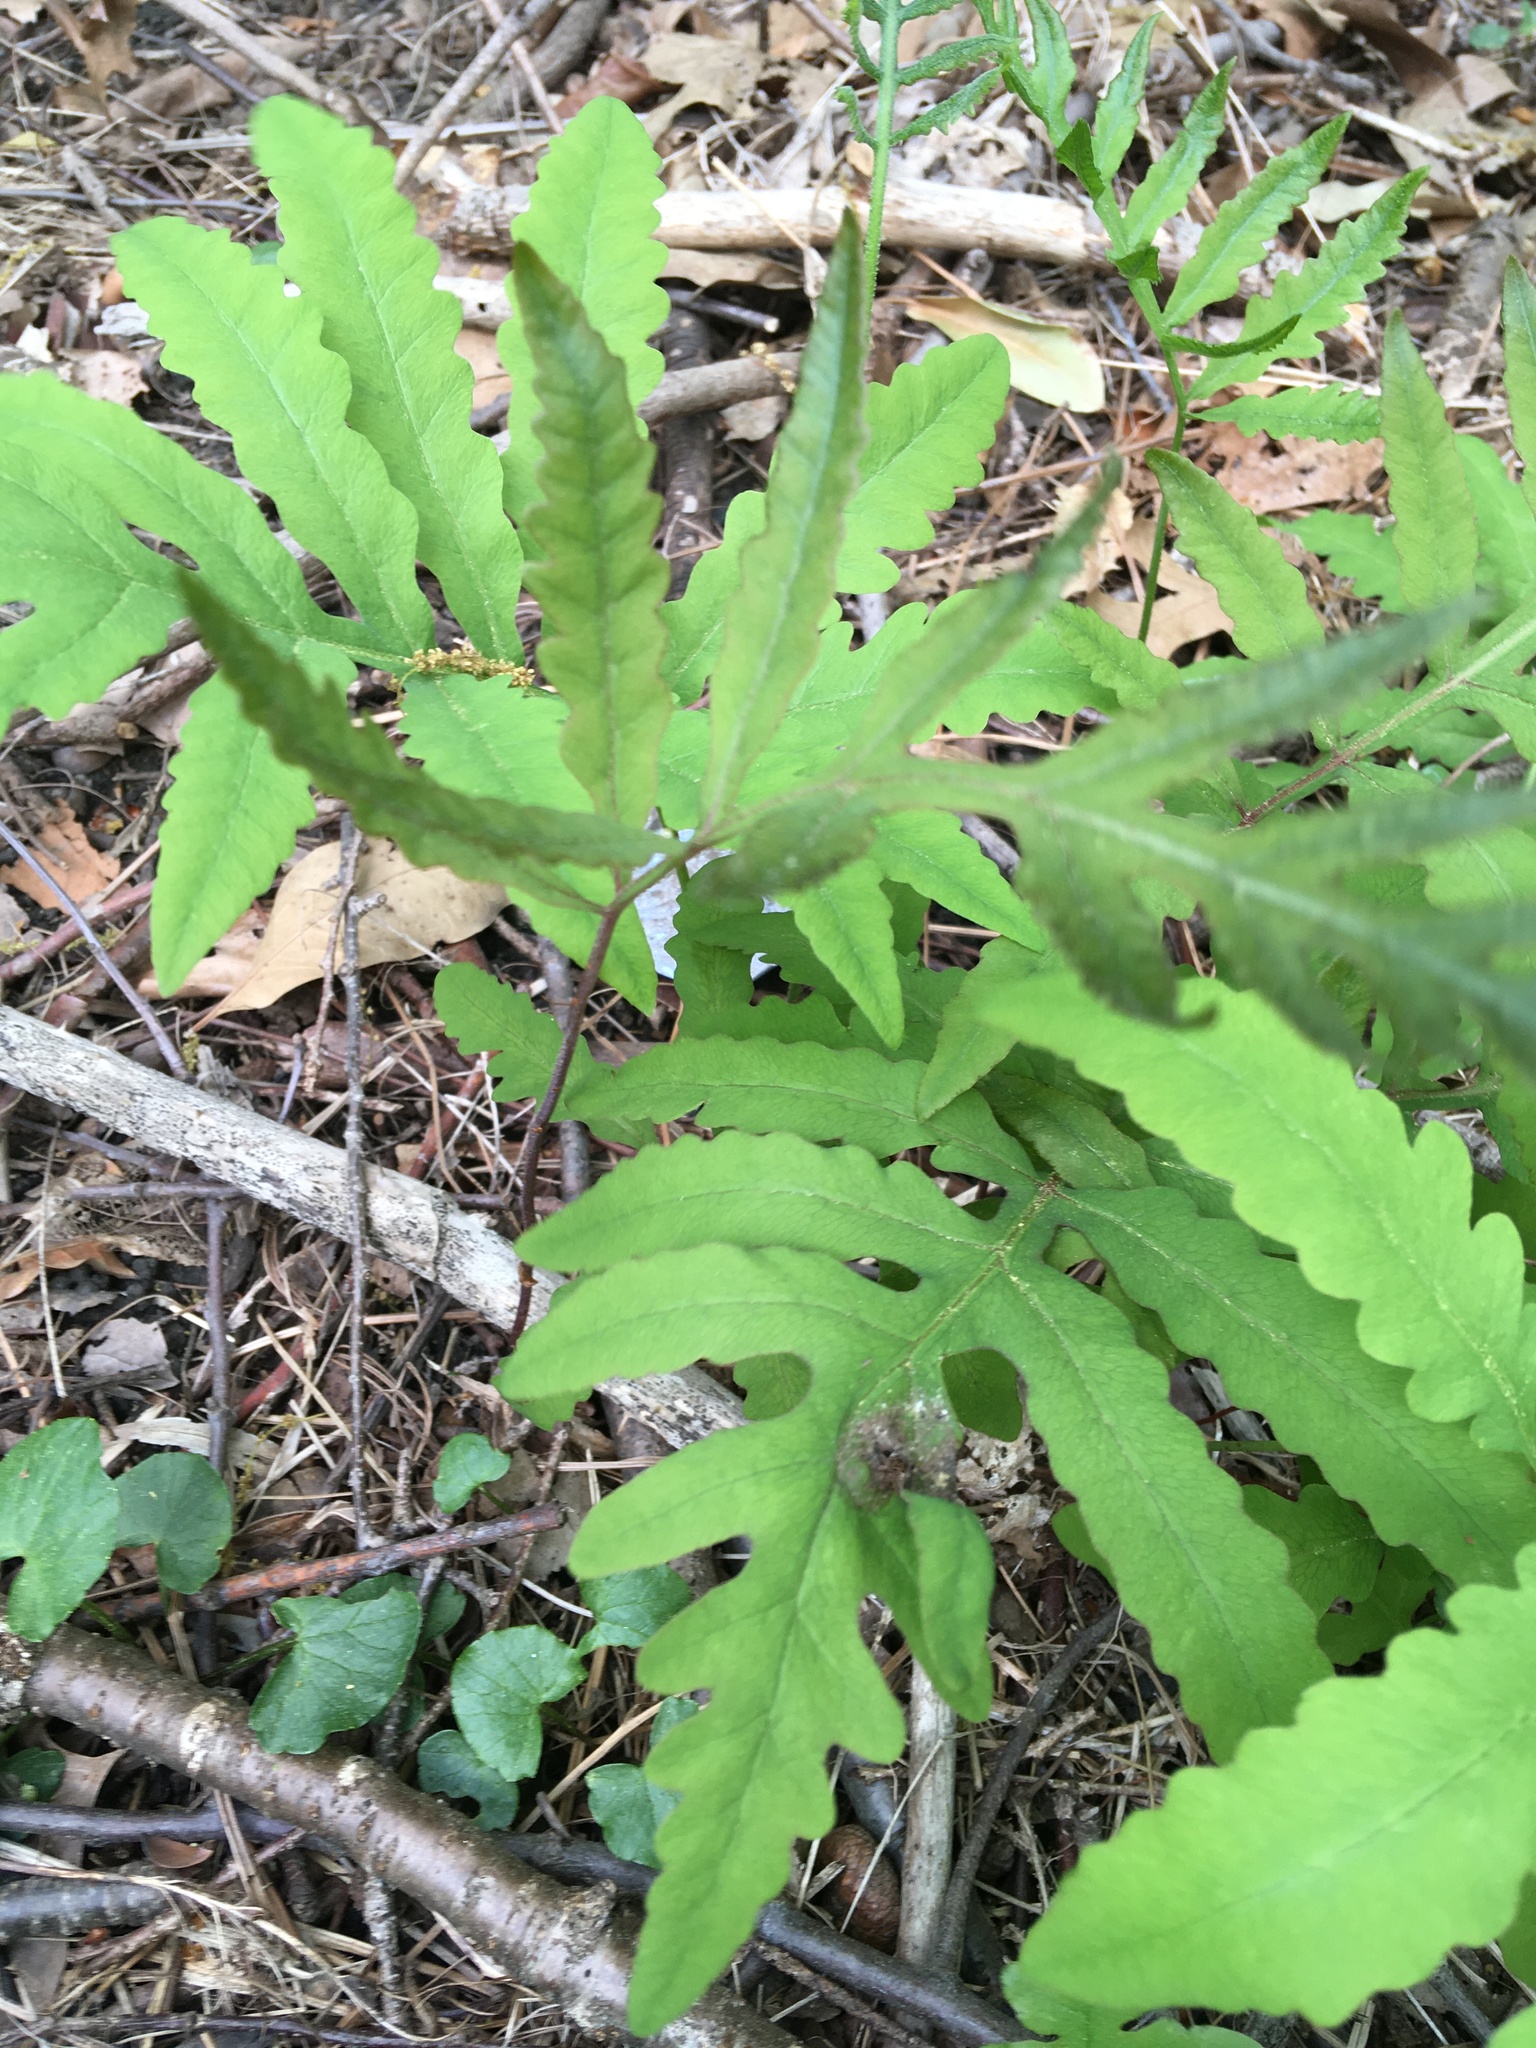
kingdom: Plantae
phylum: Tracheophyta
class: Polypodiopsida
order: Polypodiales
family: Onocleaceae
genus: Onoclea
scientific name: Onoclea sensibilis
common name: Sensitive fern
